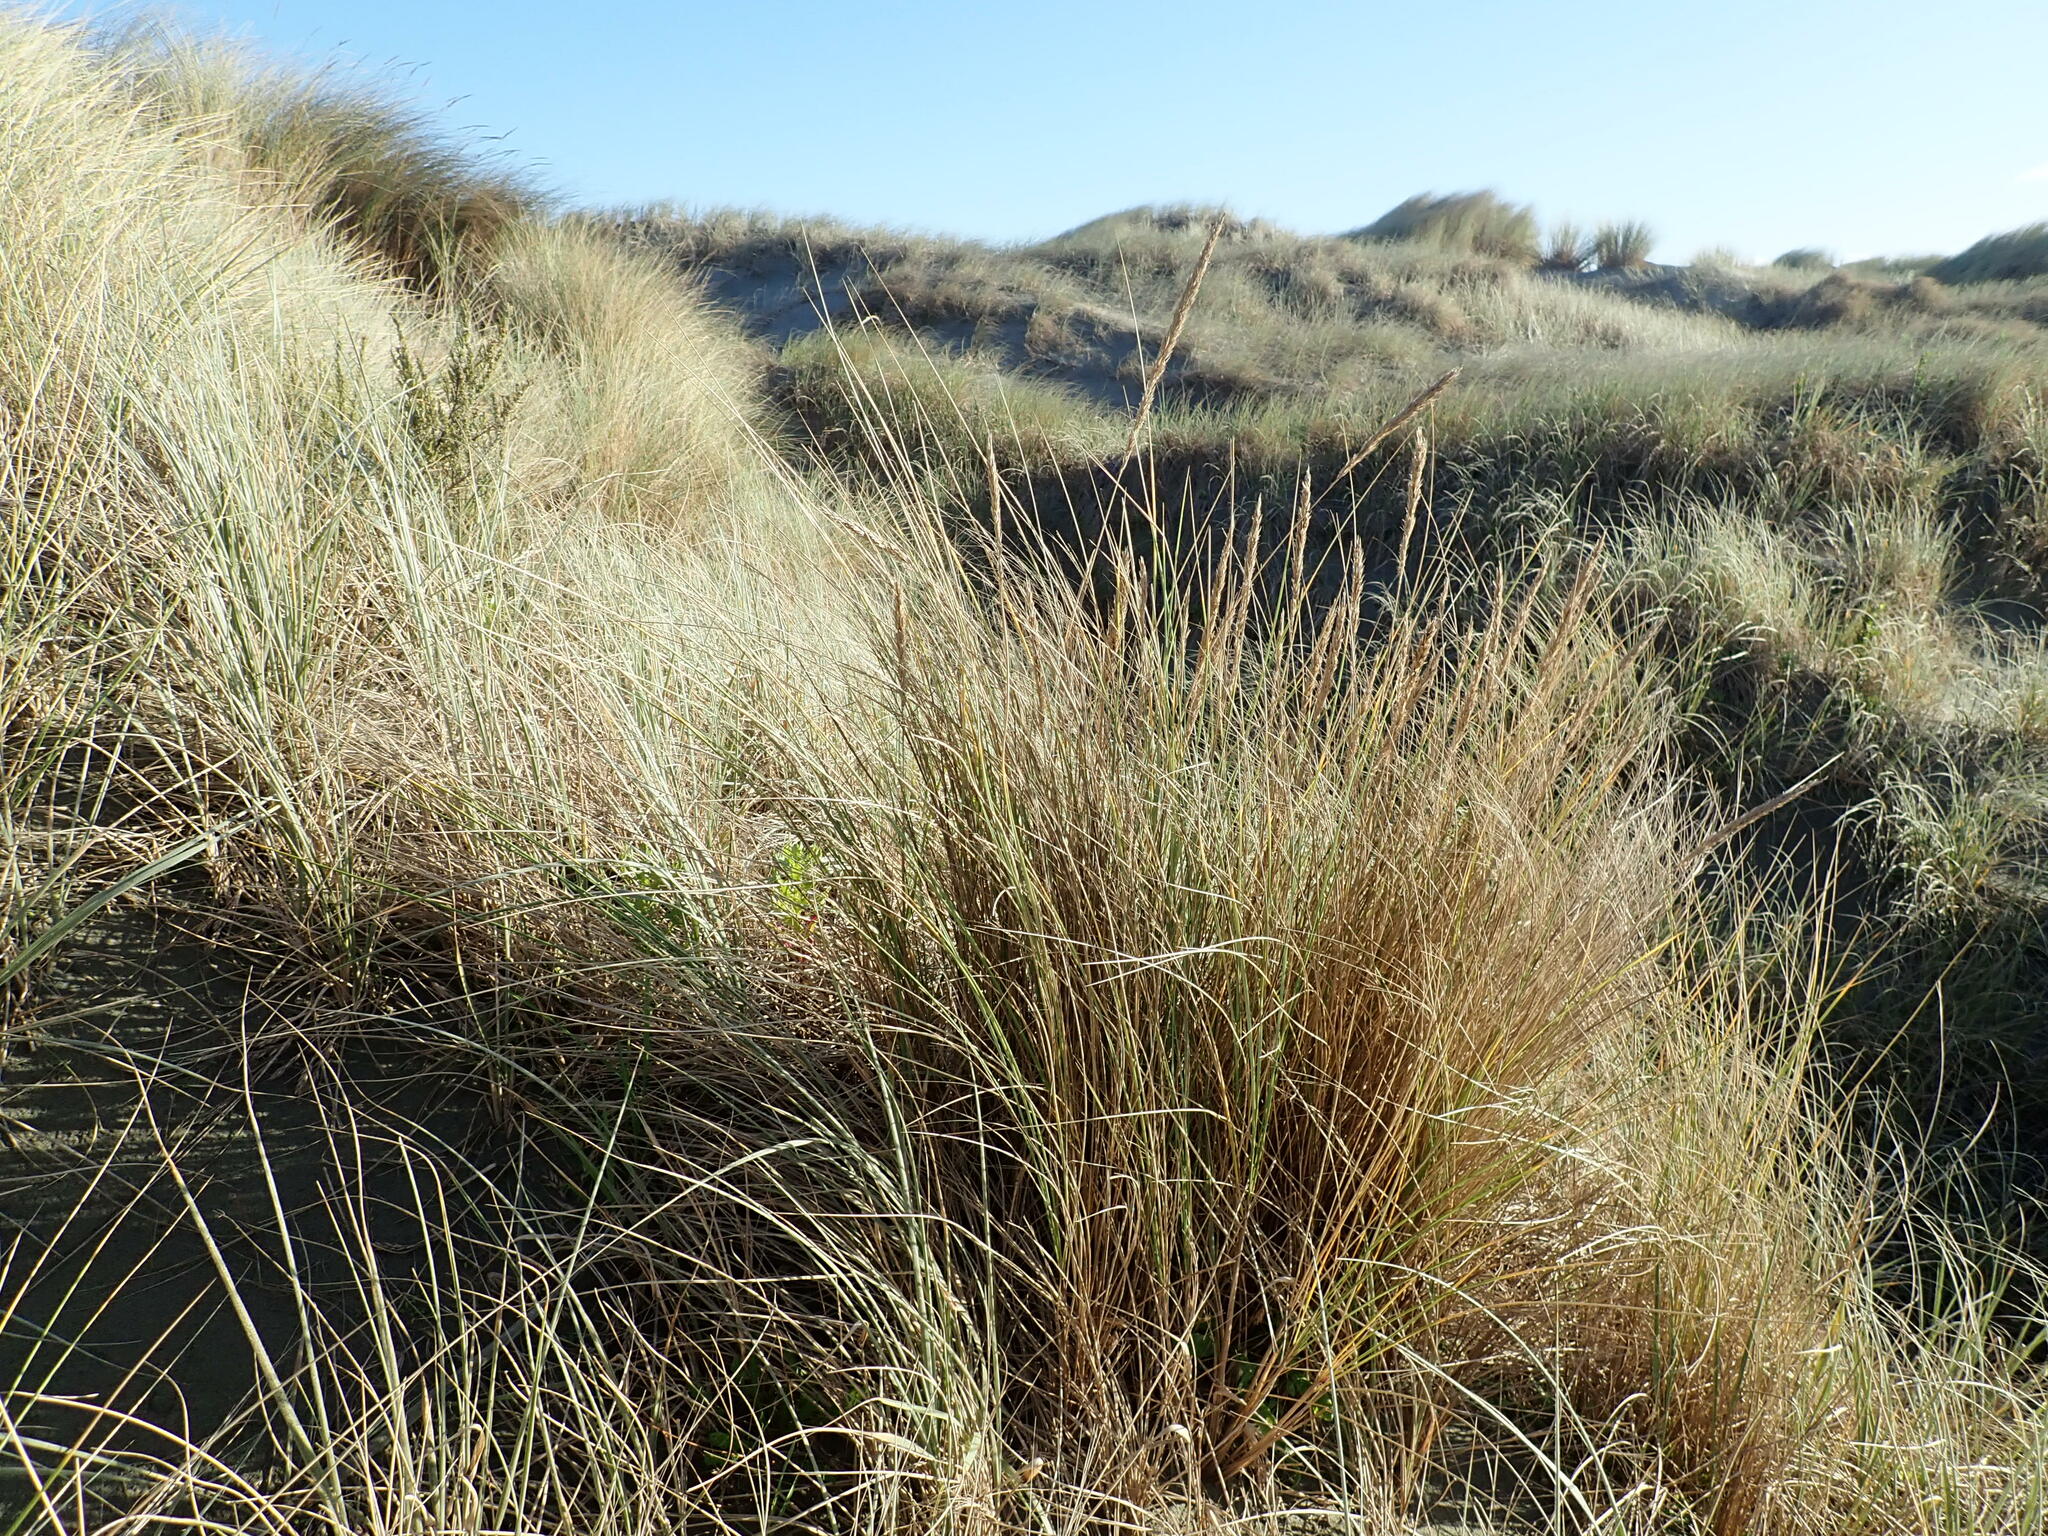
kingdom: Plantae
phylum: Tracheophyta
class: Liliopsida
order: Poales
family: Poaceae
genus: Calamagrostis
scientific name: Calamagrostis arenaria
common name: European beachgrass
